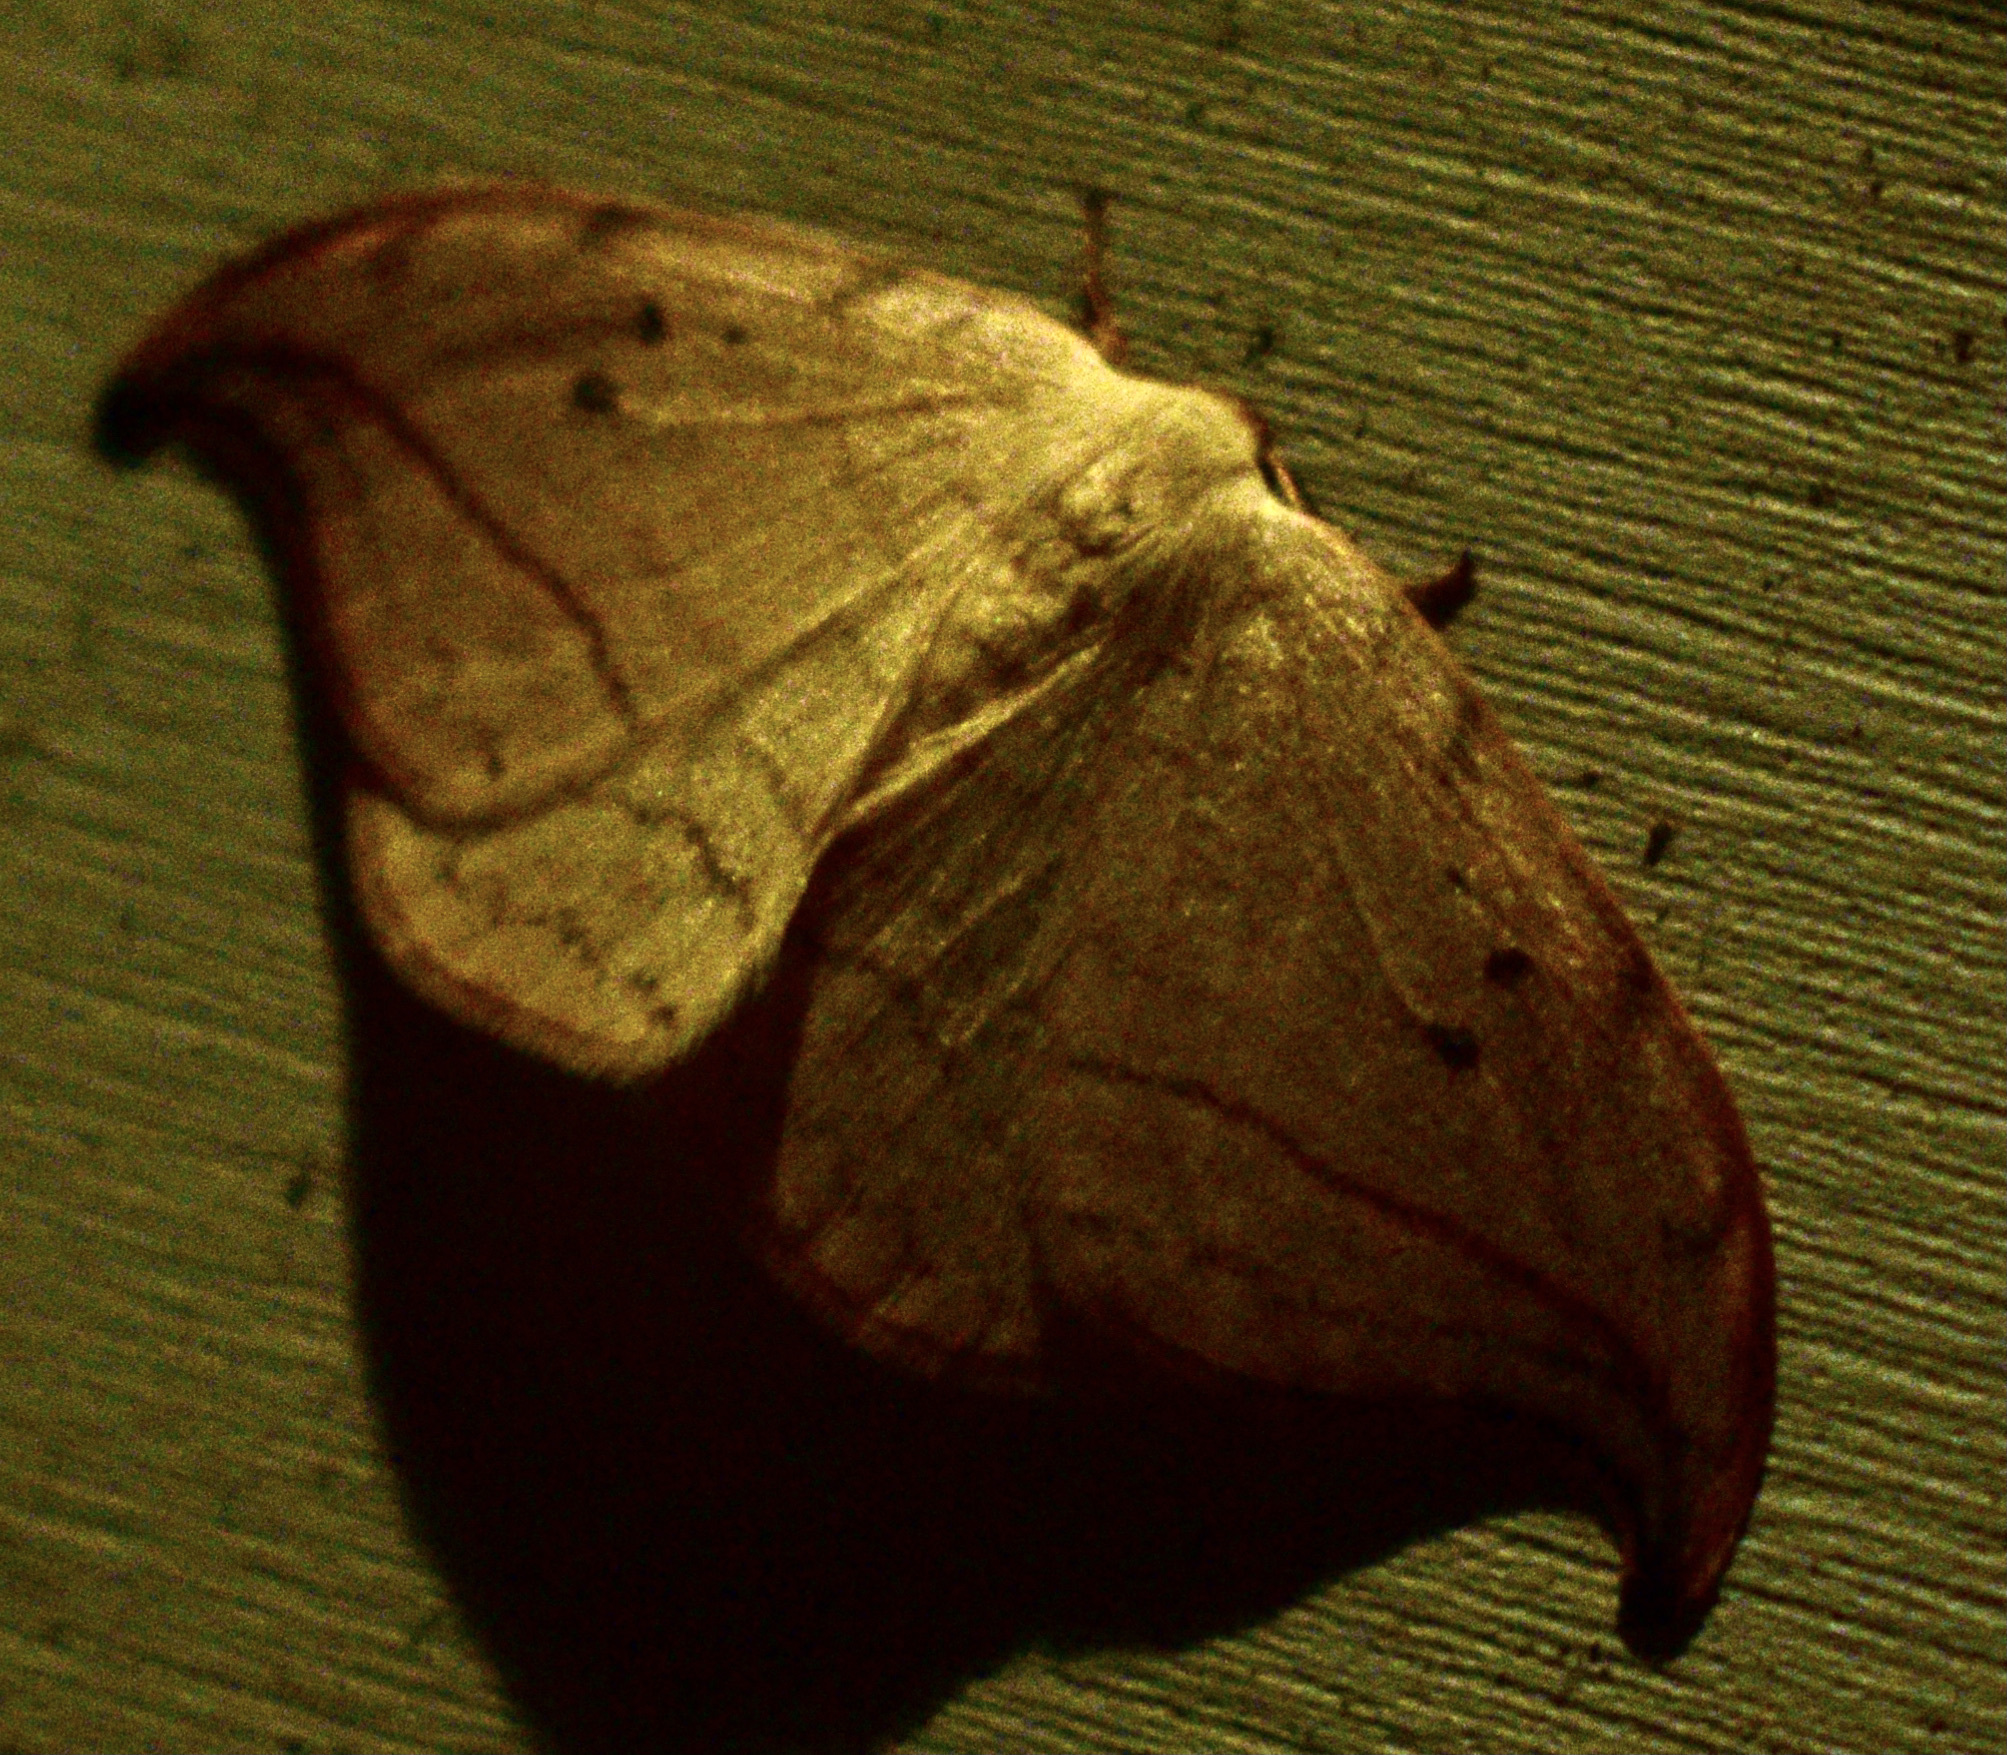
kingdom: Animalia
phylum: Arthropoda
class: Insecta
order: Lepidoptera
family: Drepanidae
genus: Drepana
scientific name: Drepana arcuata
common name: Arched hooktip moth
